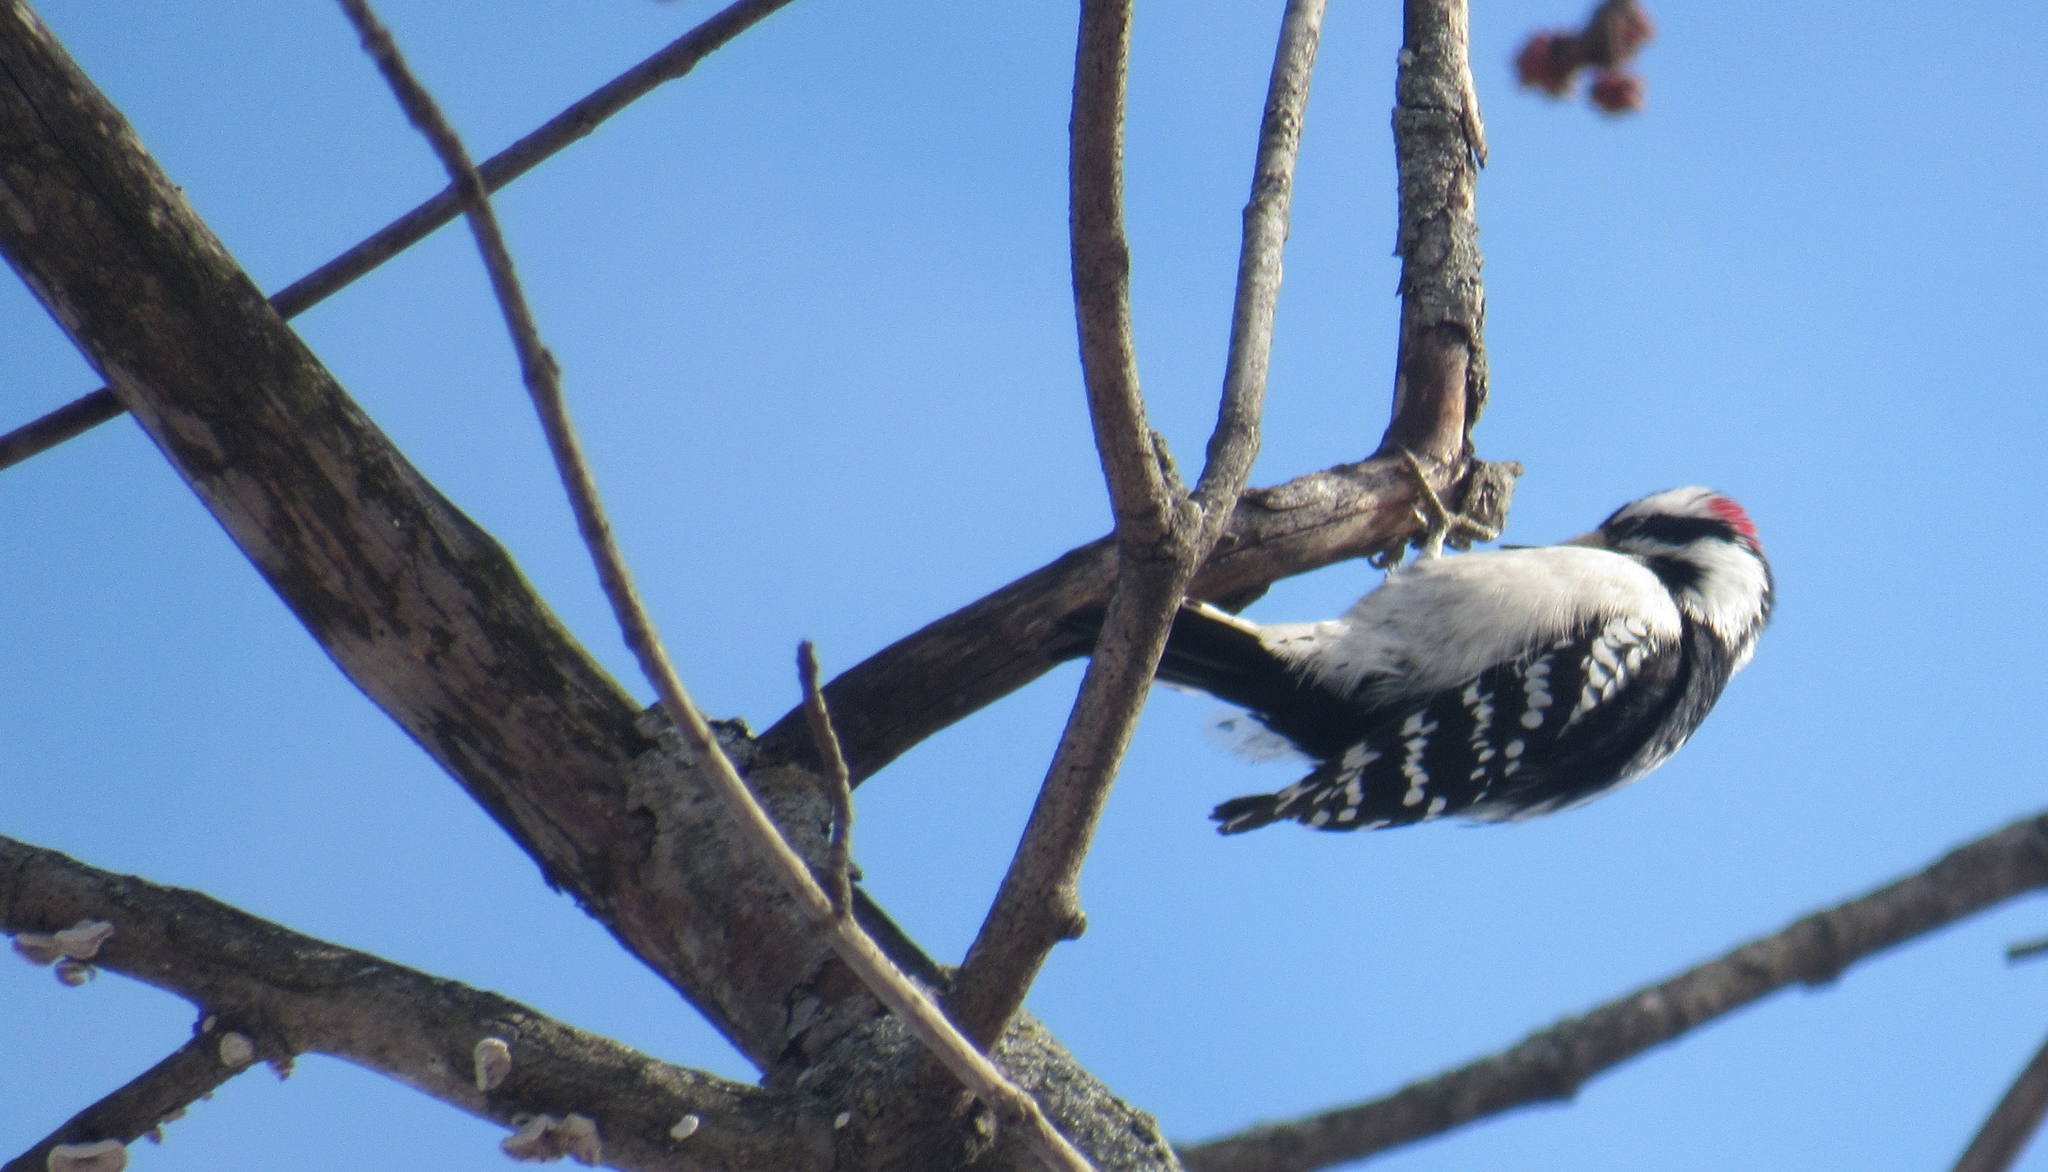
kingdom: Animalia
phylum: Chordata
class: Aves
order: Piciformes
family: Picidae
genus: Dryobates
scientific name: Dryobates pubescens
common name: Downy woodpecker
